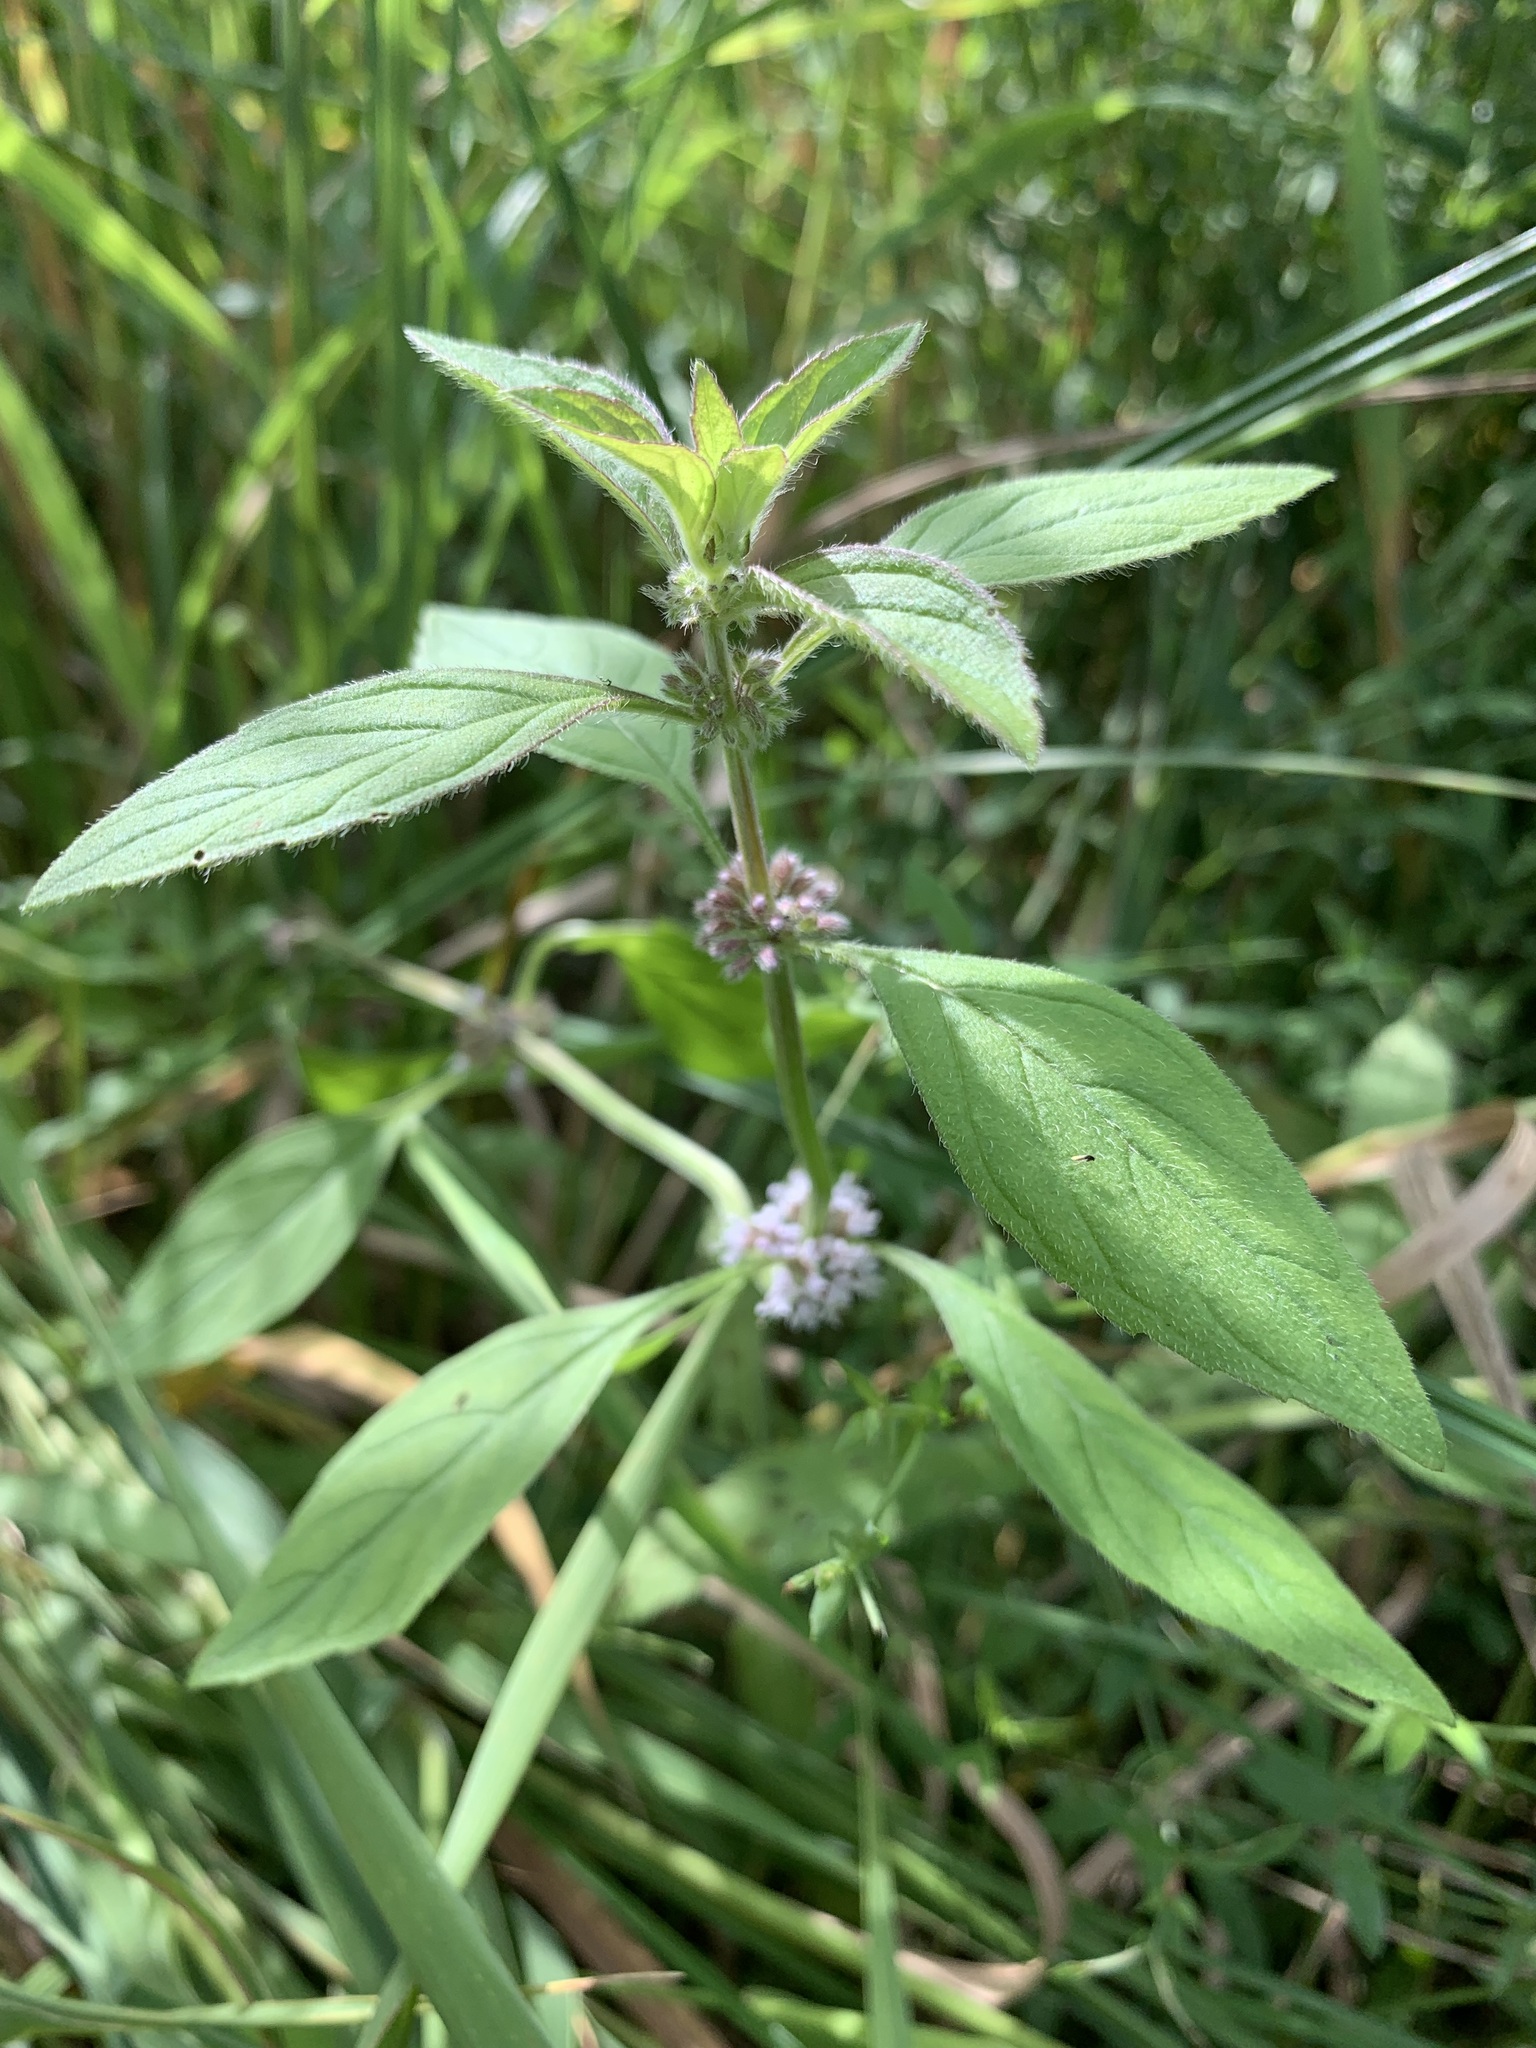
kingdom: Plantae
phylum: Tracheophyta
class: Magnoliopsida
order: Lamiales
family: Lamiaceae
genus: Mentha
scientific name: Mentha arvensis
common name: Corn mint
